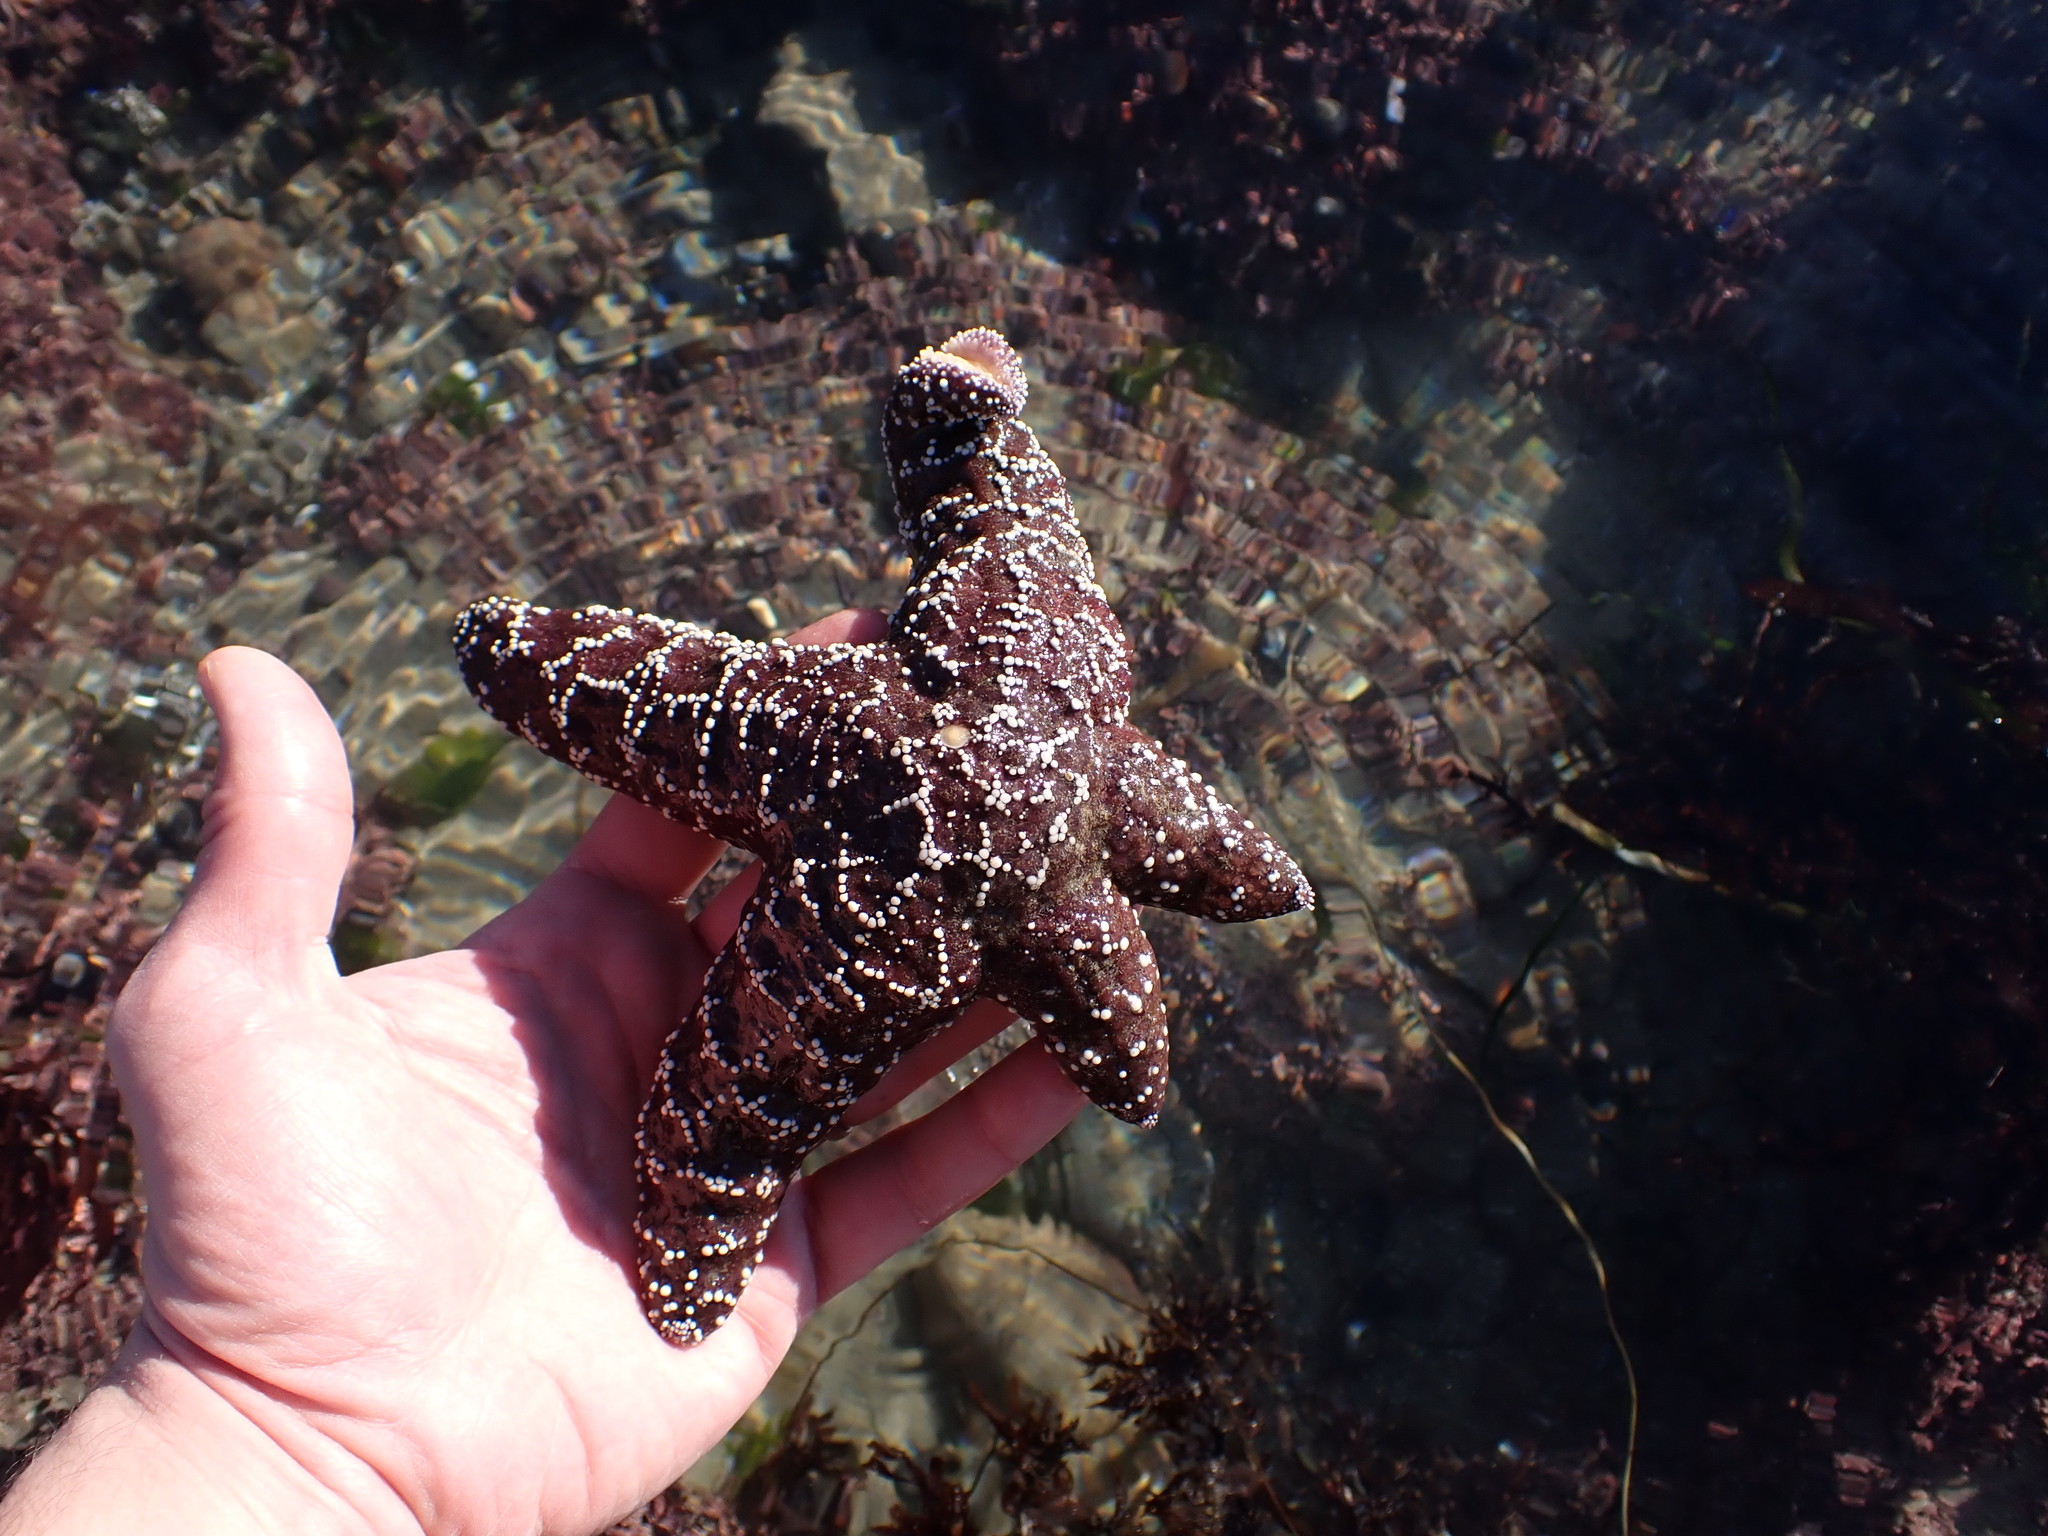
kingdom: Animalia
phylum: Echinodermata
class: Asteroidea
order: Forcipulatida
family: Asteriidae
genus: Pisaster
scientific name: Pisaster ochraceus
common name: Ochre stars
